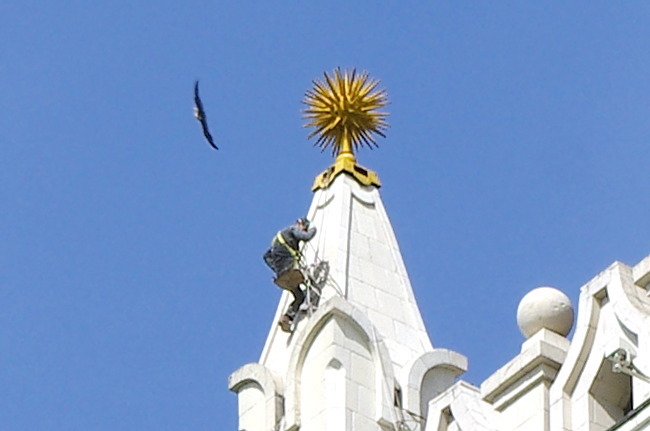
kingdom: Animalia
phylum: Chordata
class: Aves
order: Falconiformes
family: Falconidae
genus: Falco
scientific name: Falco peregrinus
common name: Peregrine falcon
